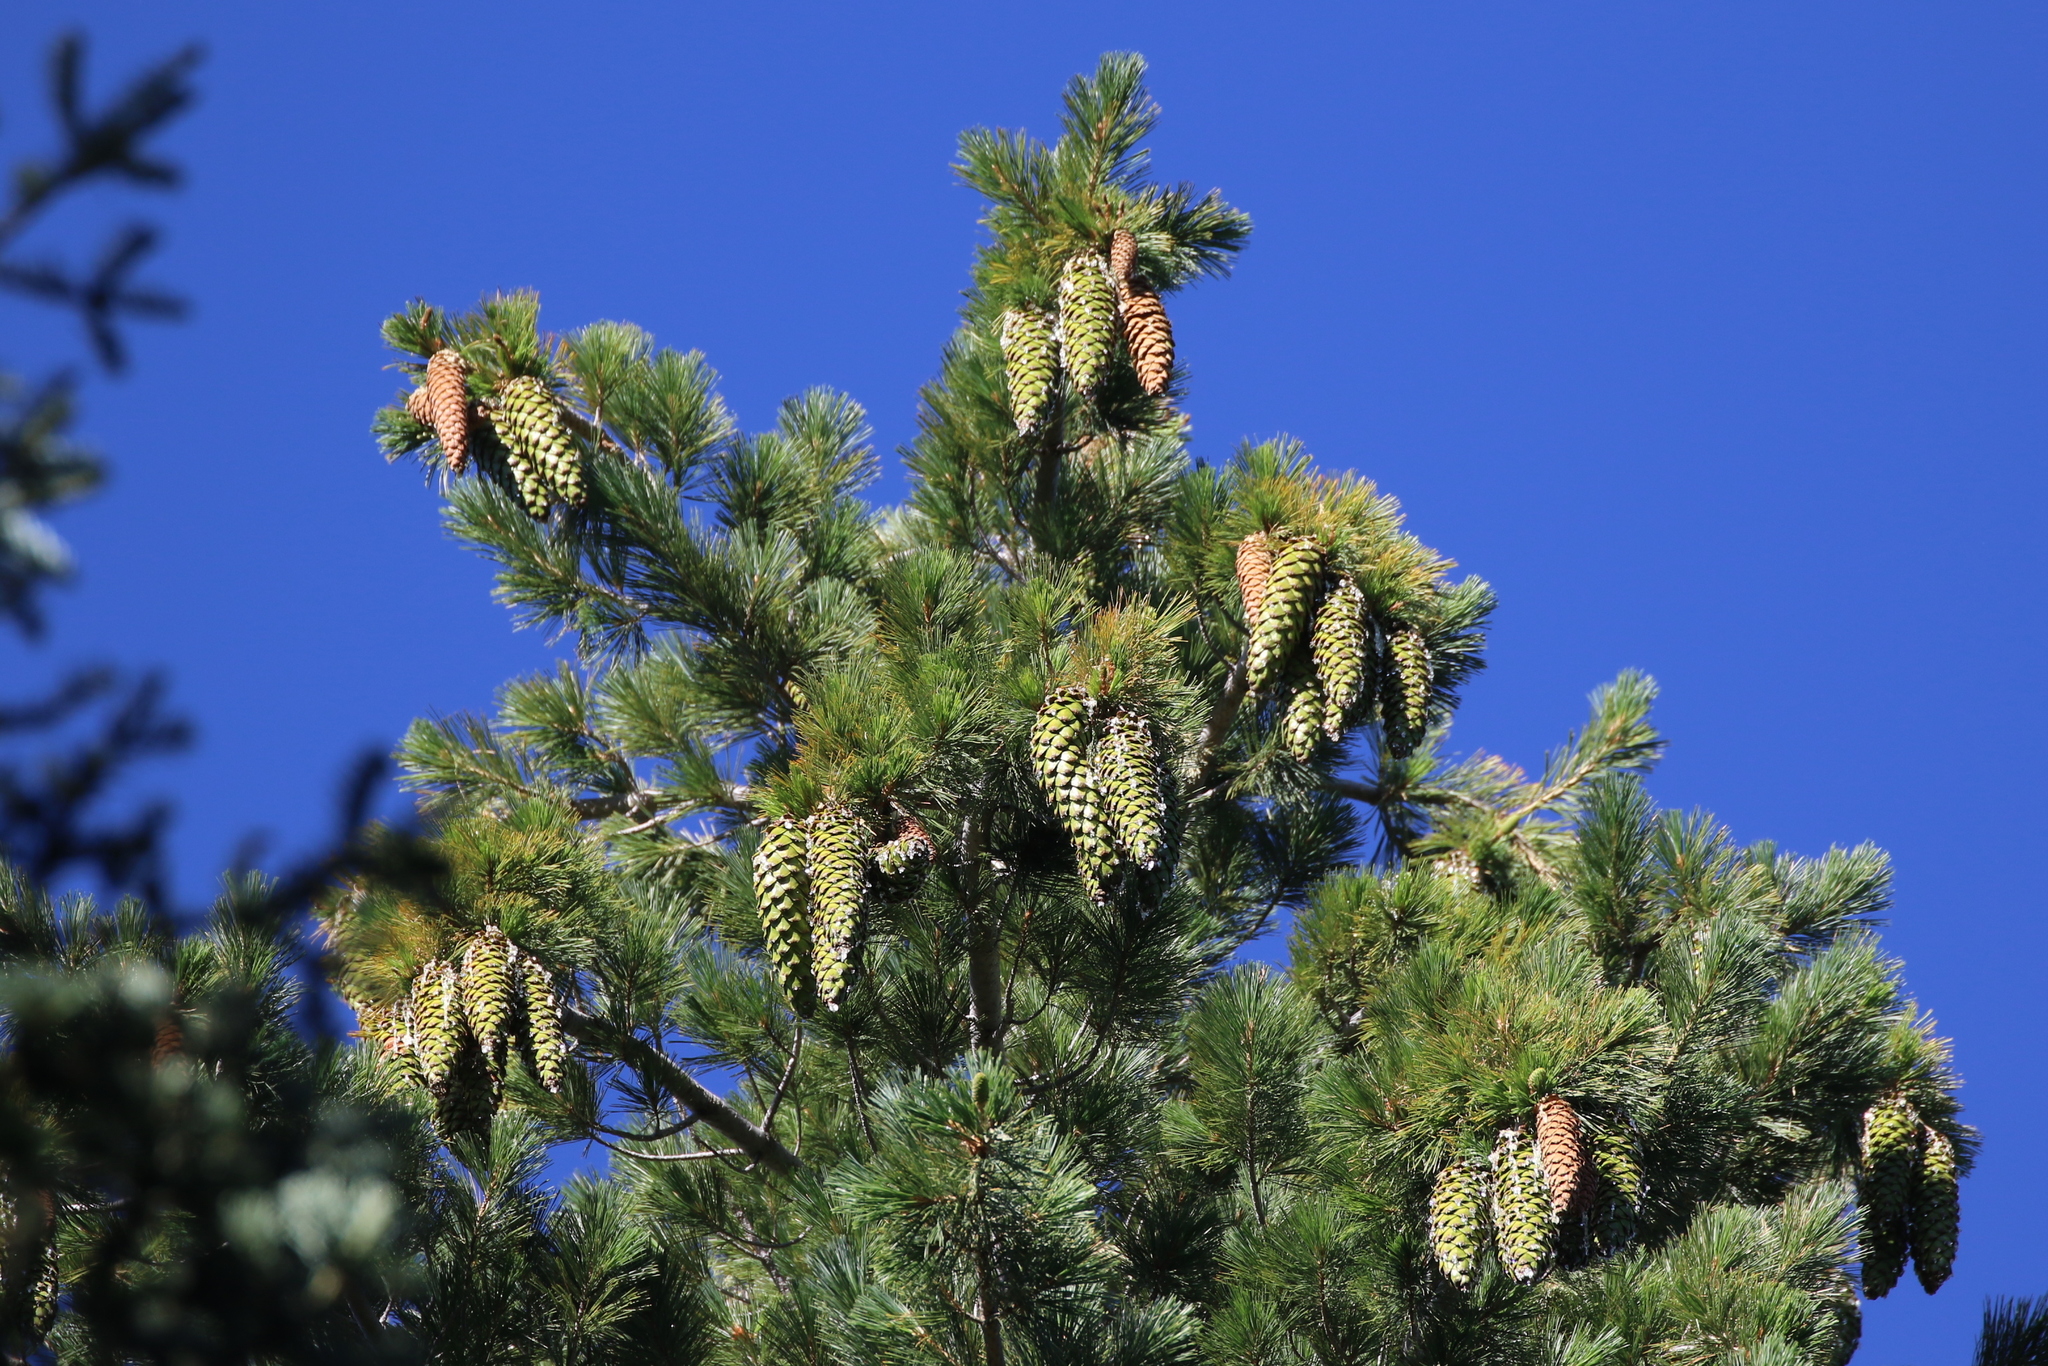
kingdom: Plantae
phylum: Tracheophyta
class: Pinopsida
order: Pinales
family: Pinaceae
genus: Pinus
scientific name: Pinus lambertiana
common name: Sugar pine
